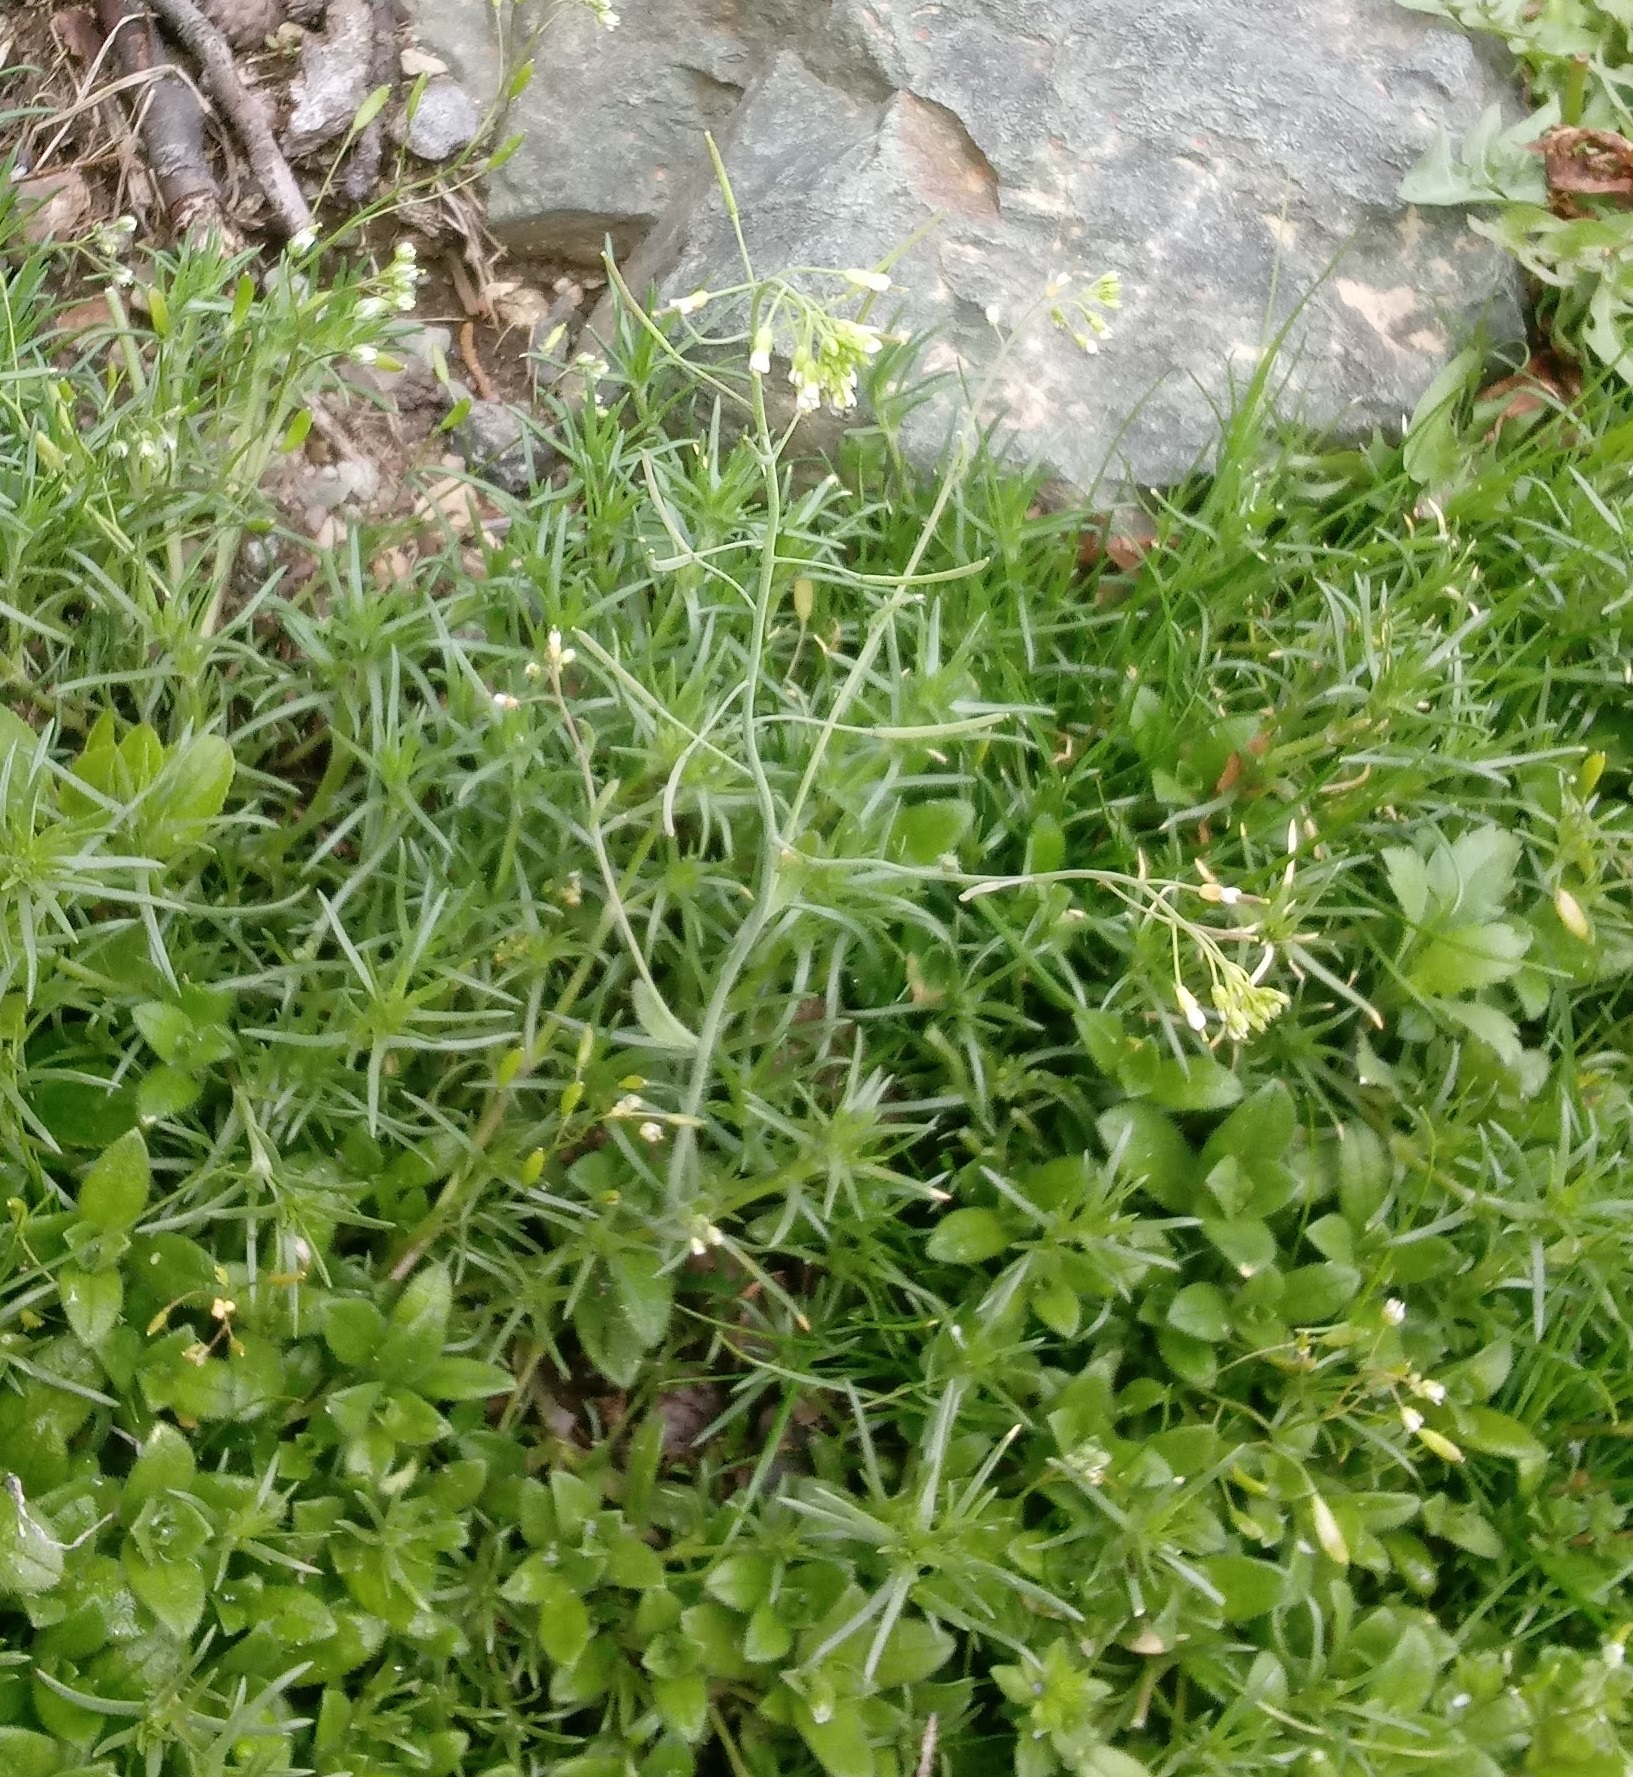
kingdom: Plantae
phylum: Tracheophyta
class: Magnoliopsida
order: Brassicales
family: Brassicaceae
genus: Arabidopsis
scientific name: Arabidopsis thaliana
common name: Thale cress
